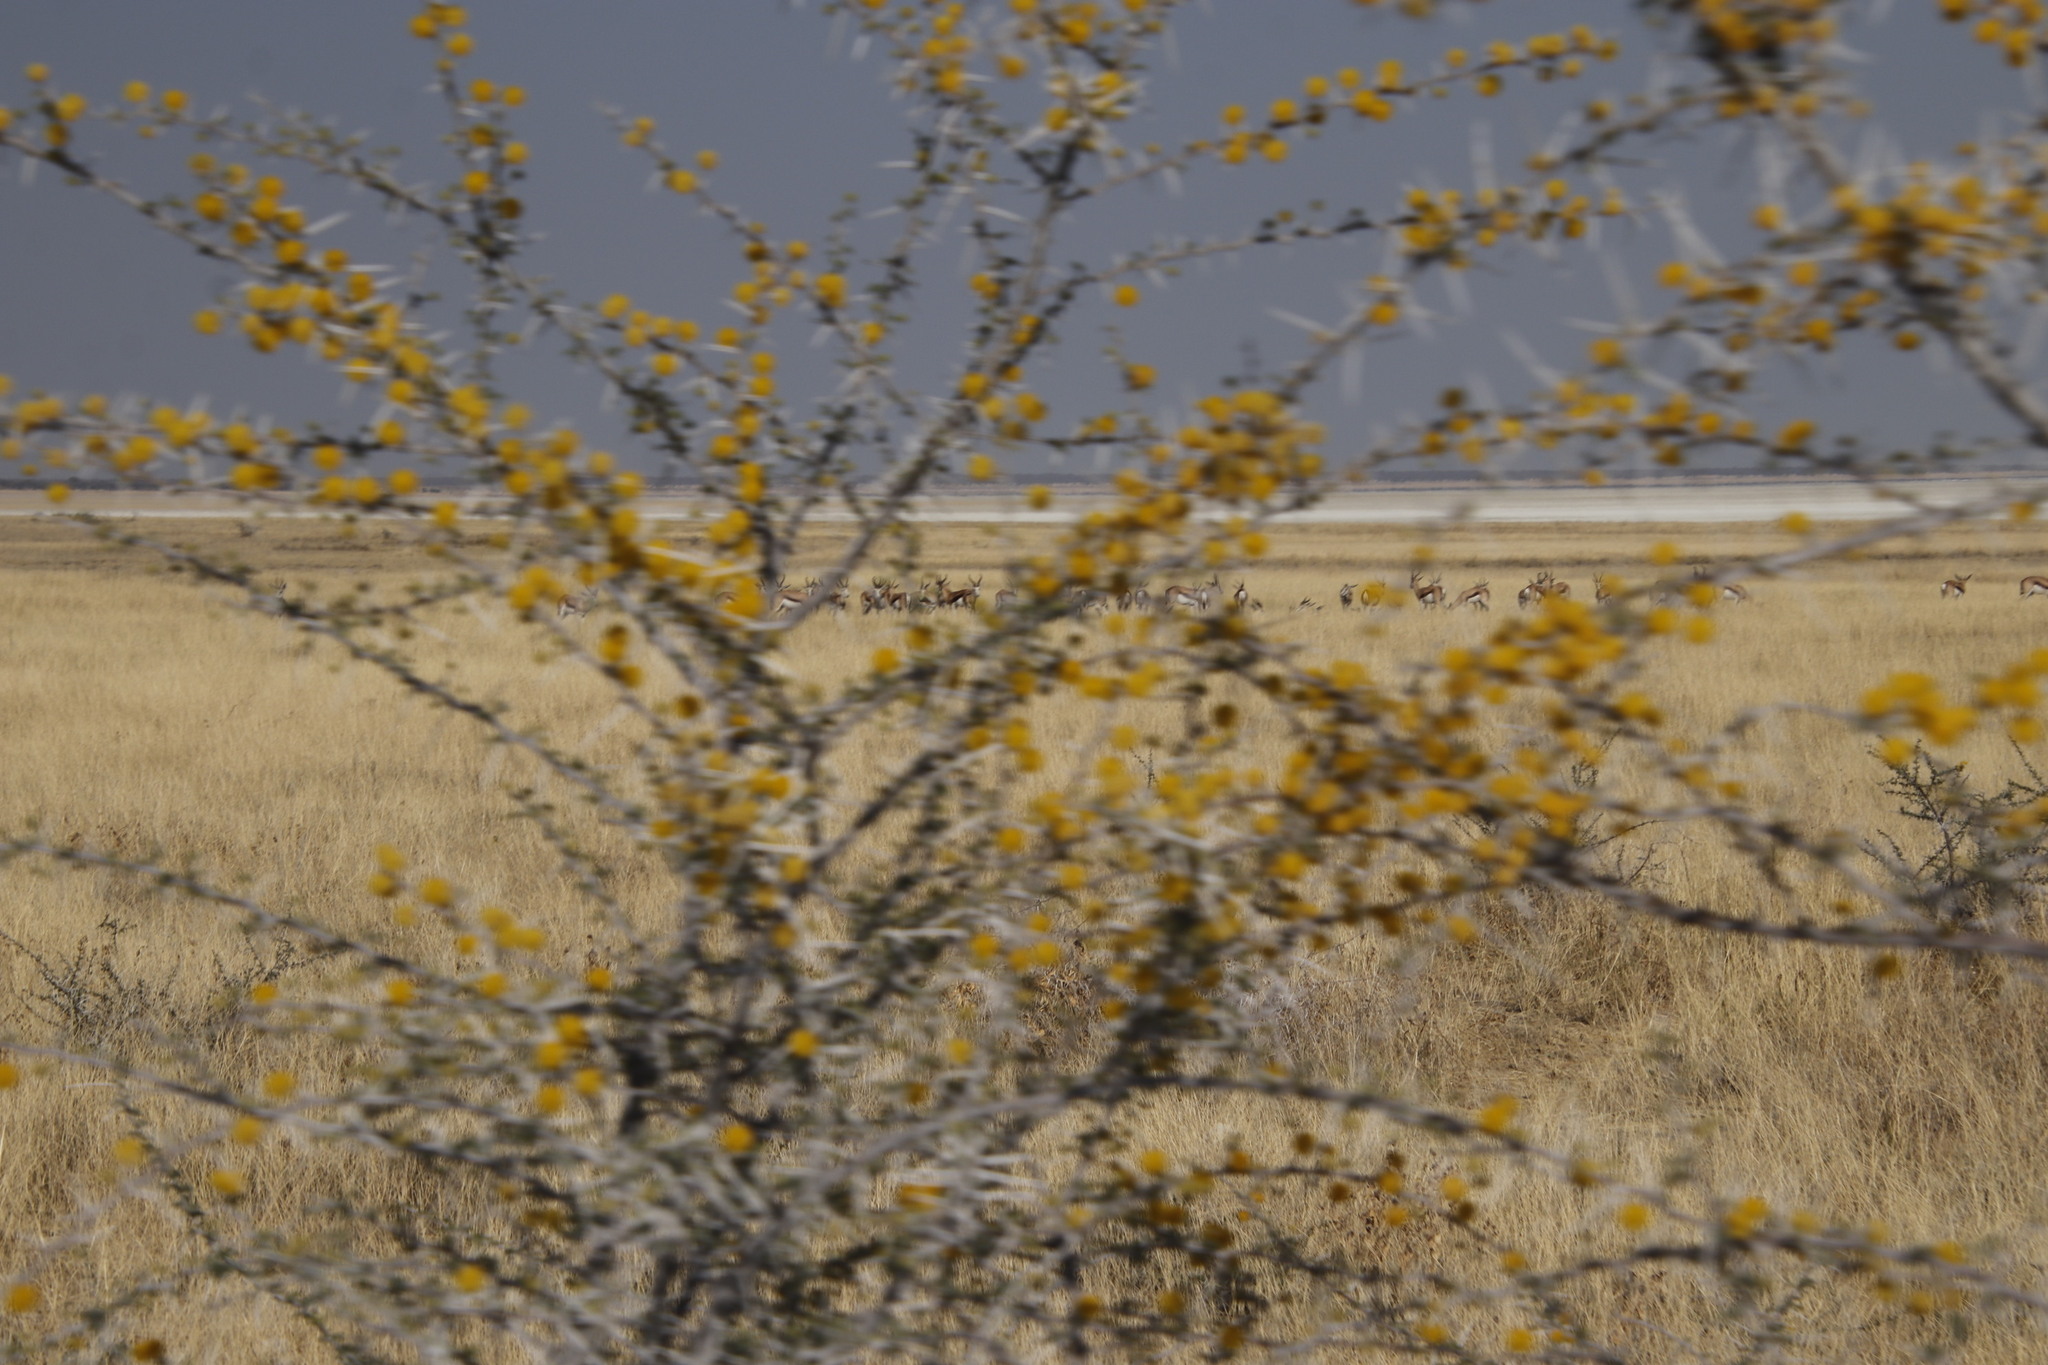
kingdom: Animalia
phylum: Chordata
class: Mammalia
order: Artiodactyla
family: Bovidae
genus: Antidorcas
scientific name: Antidorcas marsupialis
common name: Springbok
